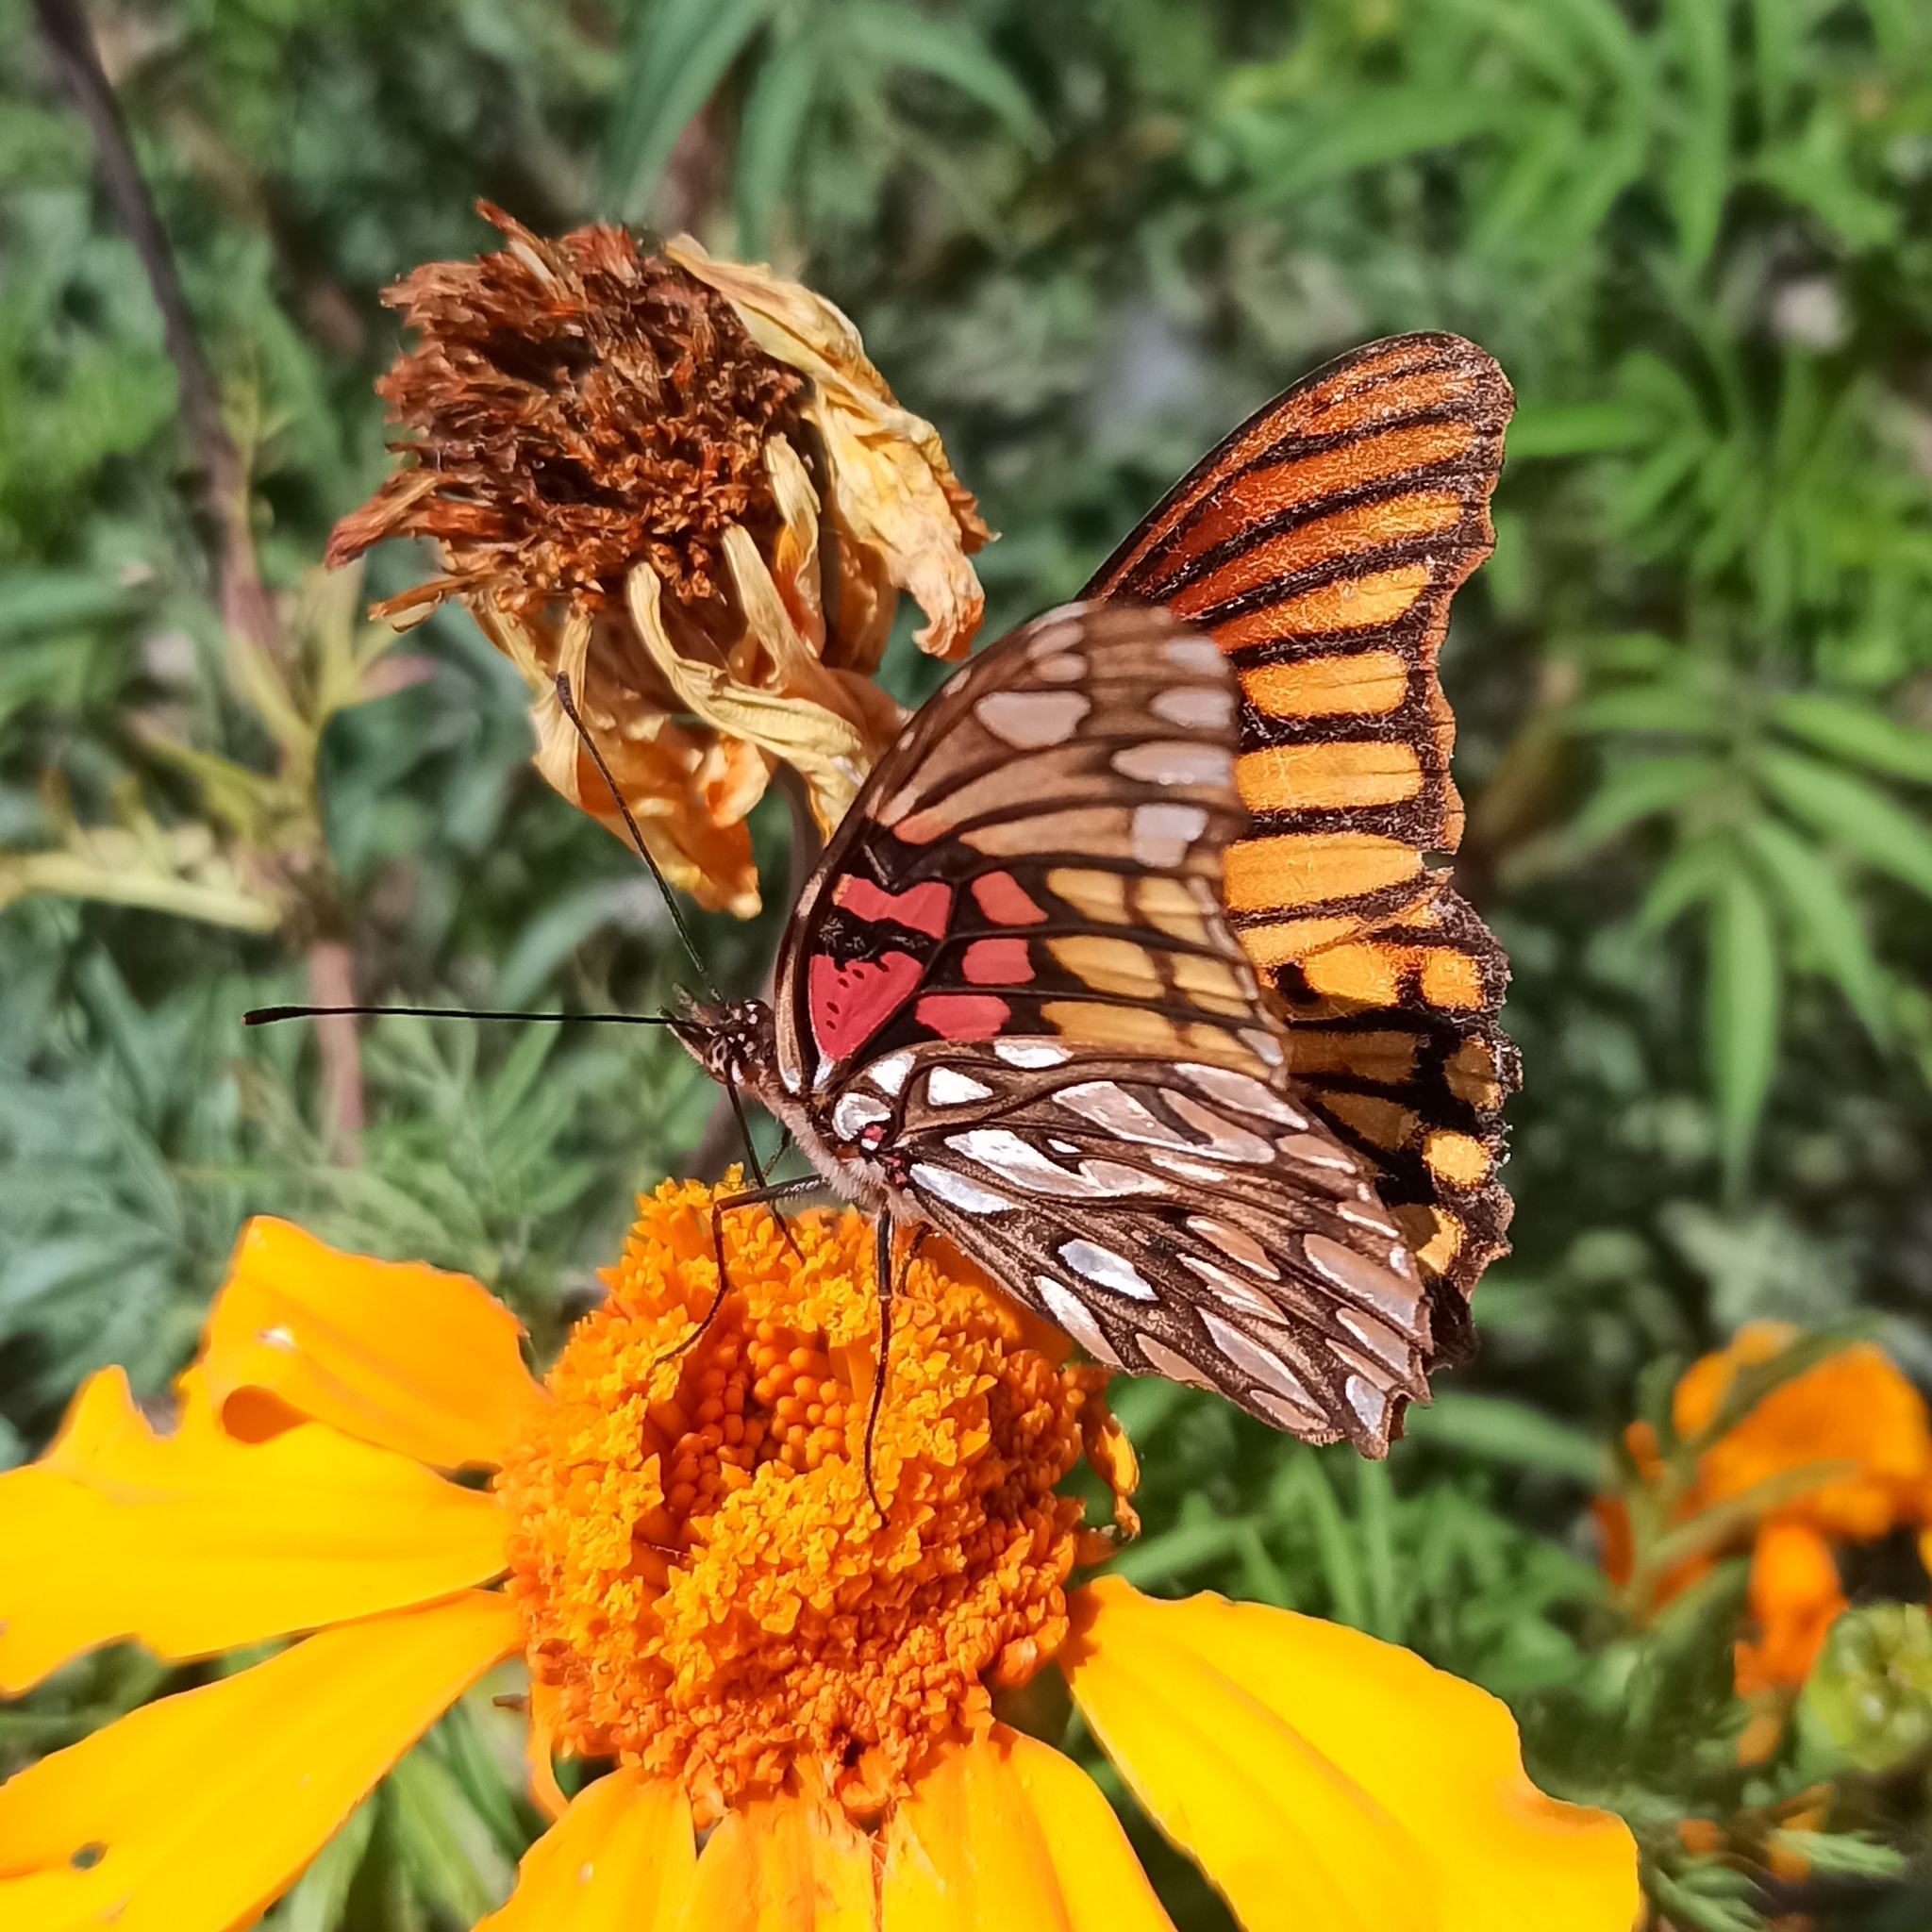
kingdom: Animalia
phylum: Arthropoda
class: Insecta
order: Lepidoptera
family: Nymphalidae
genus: Dione
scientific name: Dione moneta
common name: Mexican silverspot
